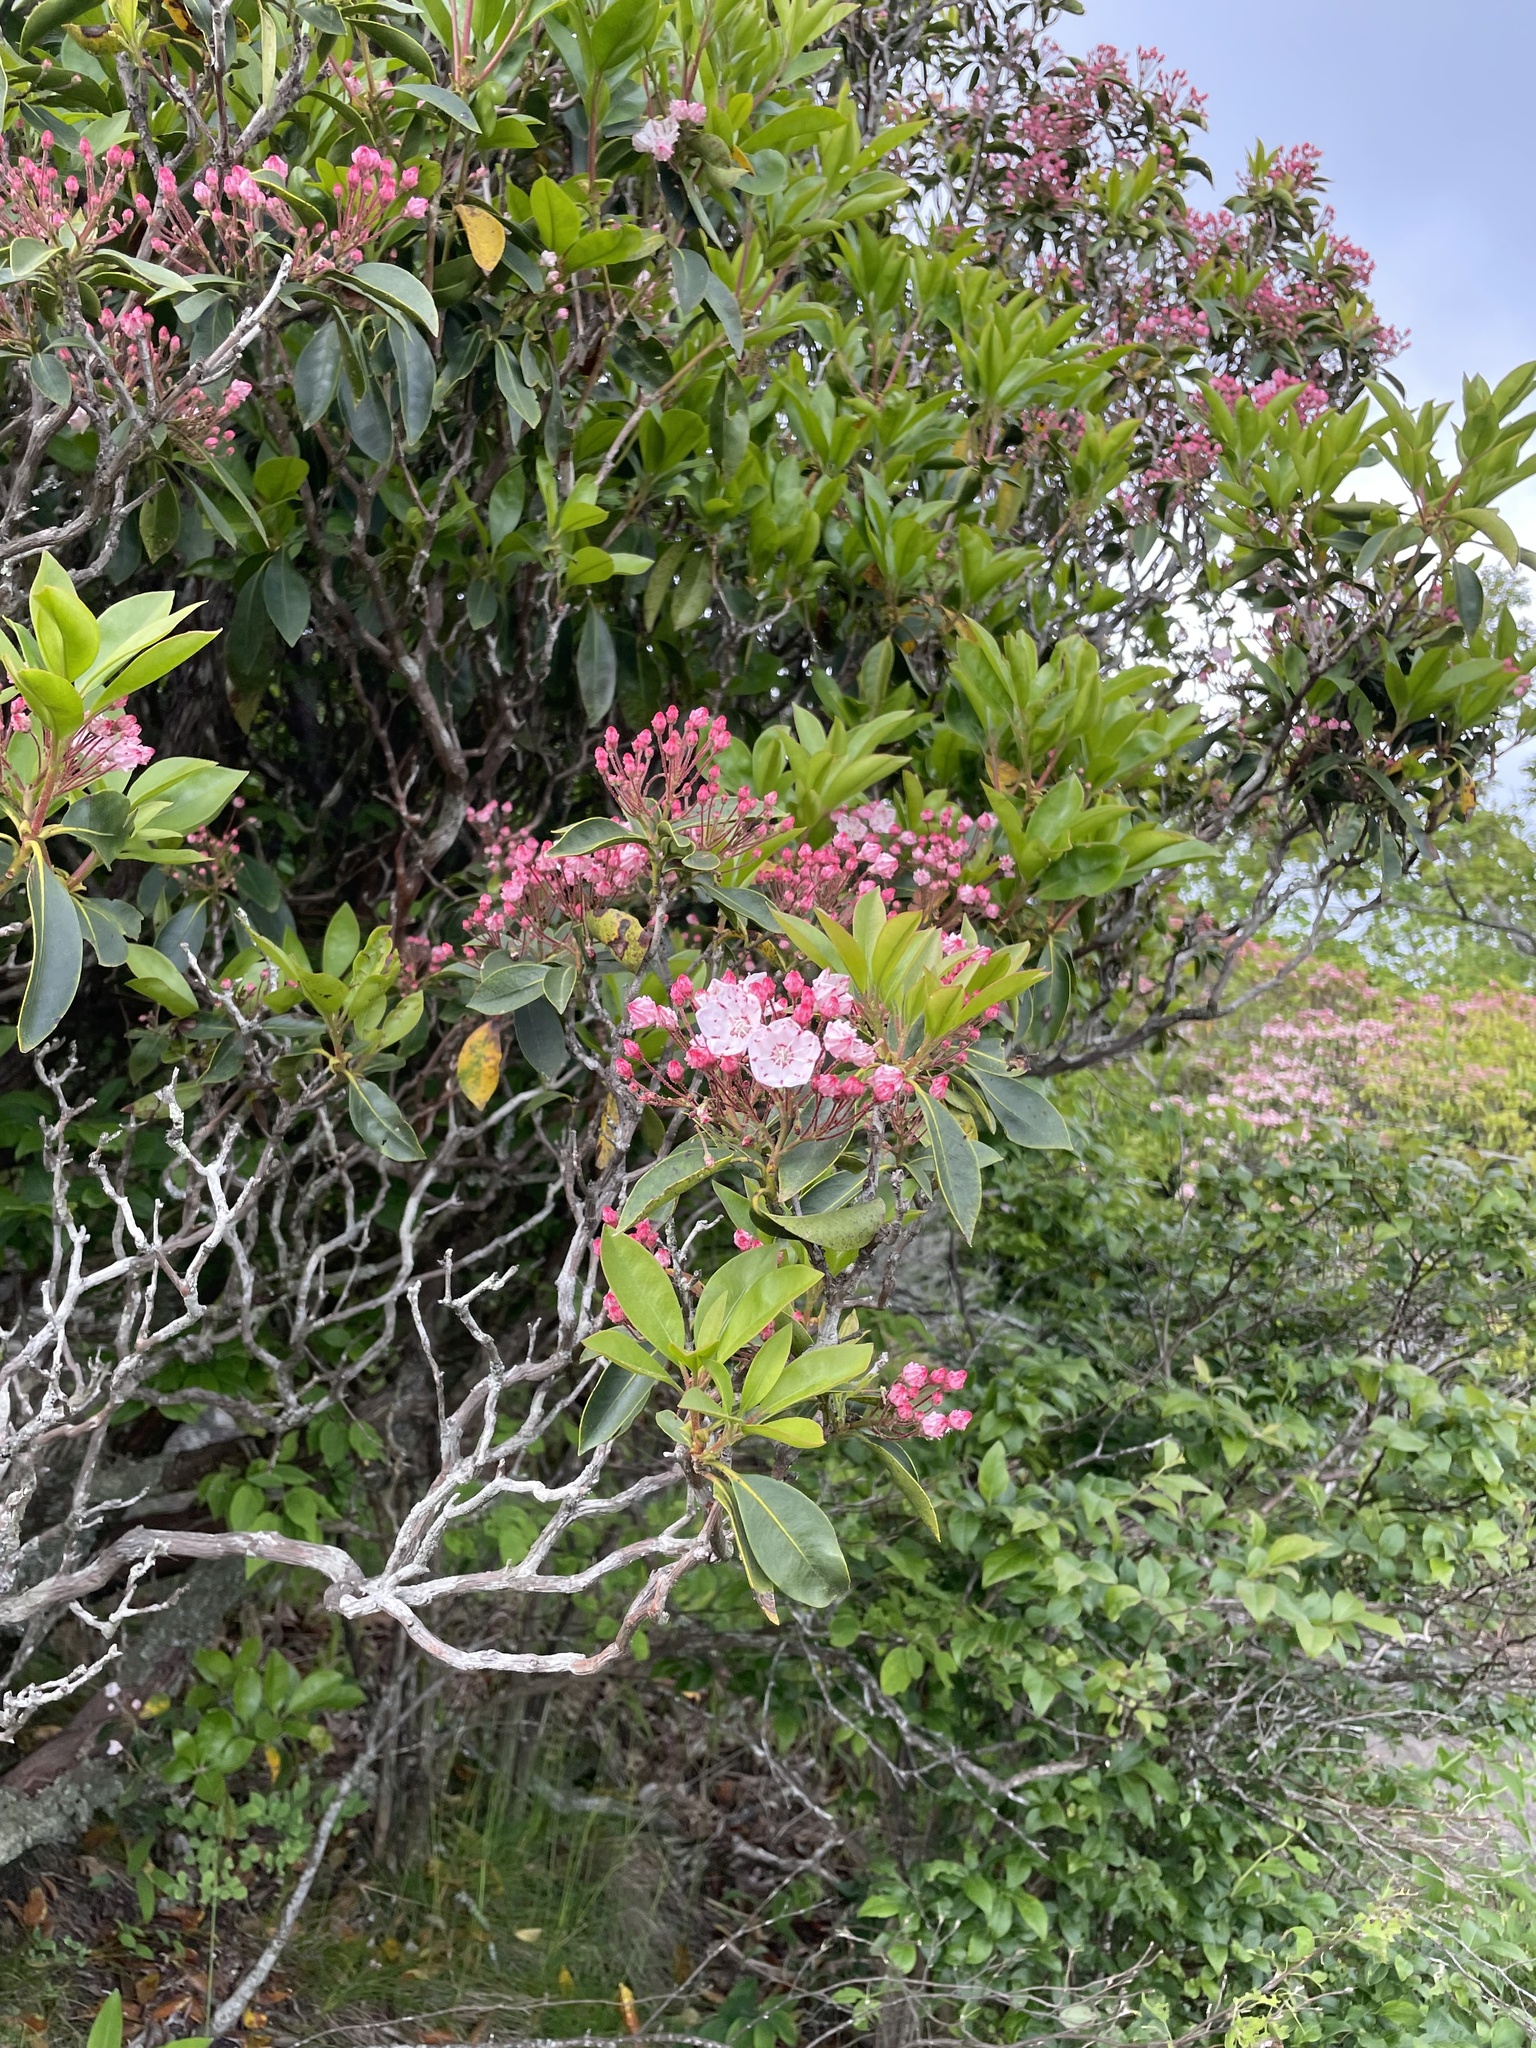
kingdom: Plantae
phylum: Tracheophyta
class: Magnoliopsida
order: Ericales
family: Ericaceae
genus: Kalmia
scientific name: Kalmia latifolia
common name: Mountain-laurel
